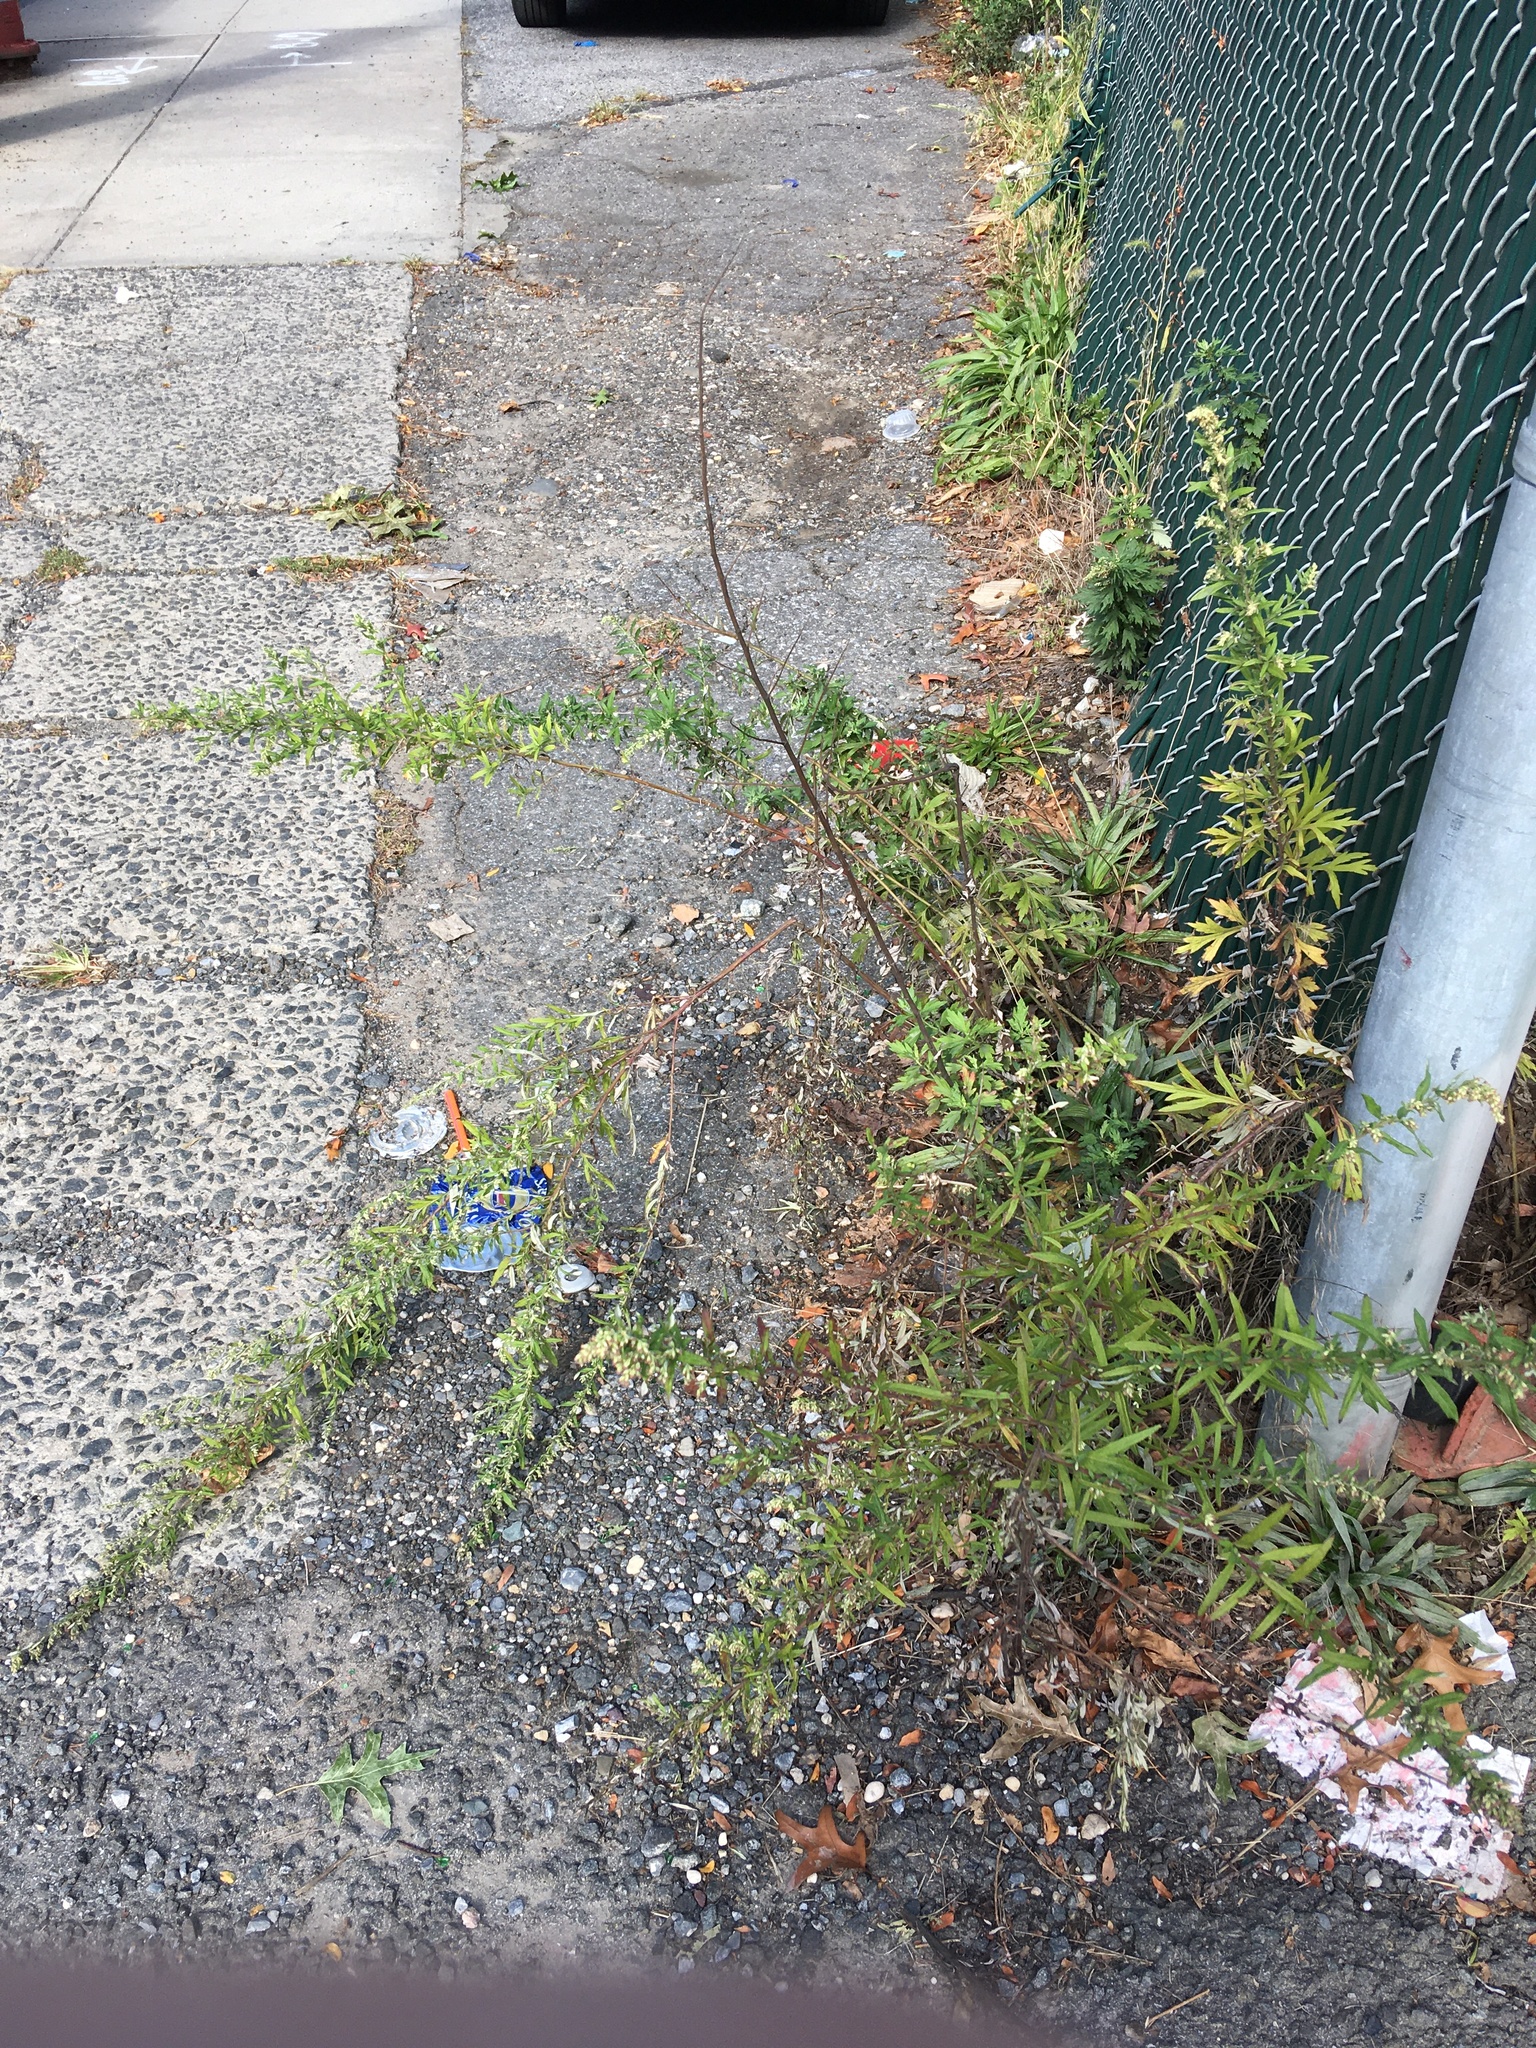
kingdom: Plantae
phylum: Tracheophyta
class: Magnoliopsida
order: Asterales
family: Asteraceae
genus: Artemisia
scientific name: Artemisia vulgaris
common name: Mugwort
